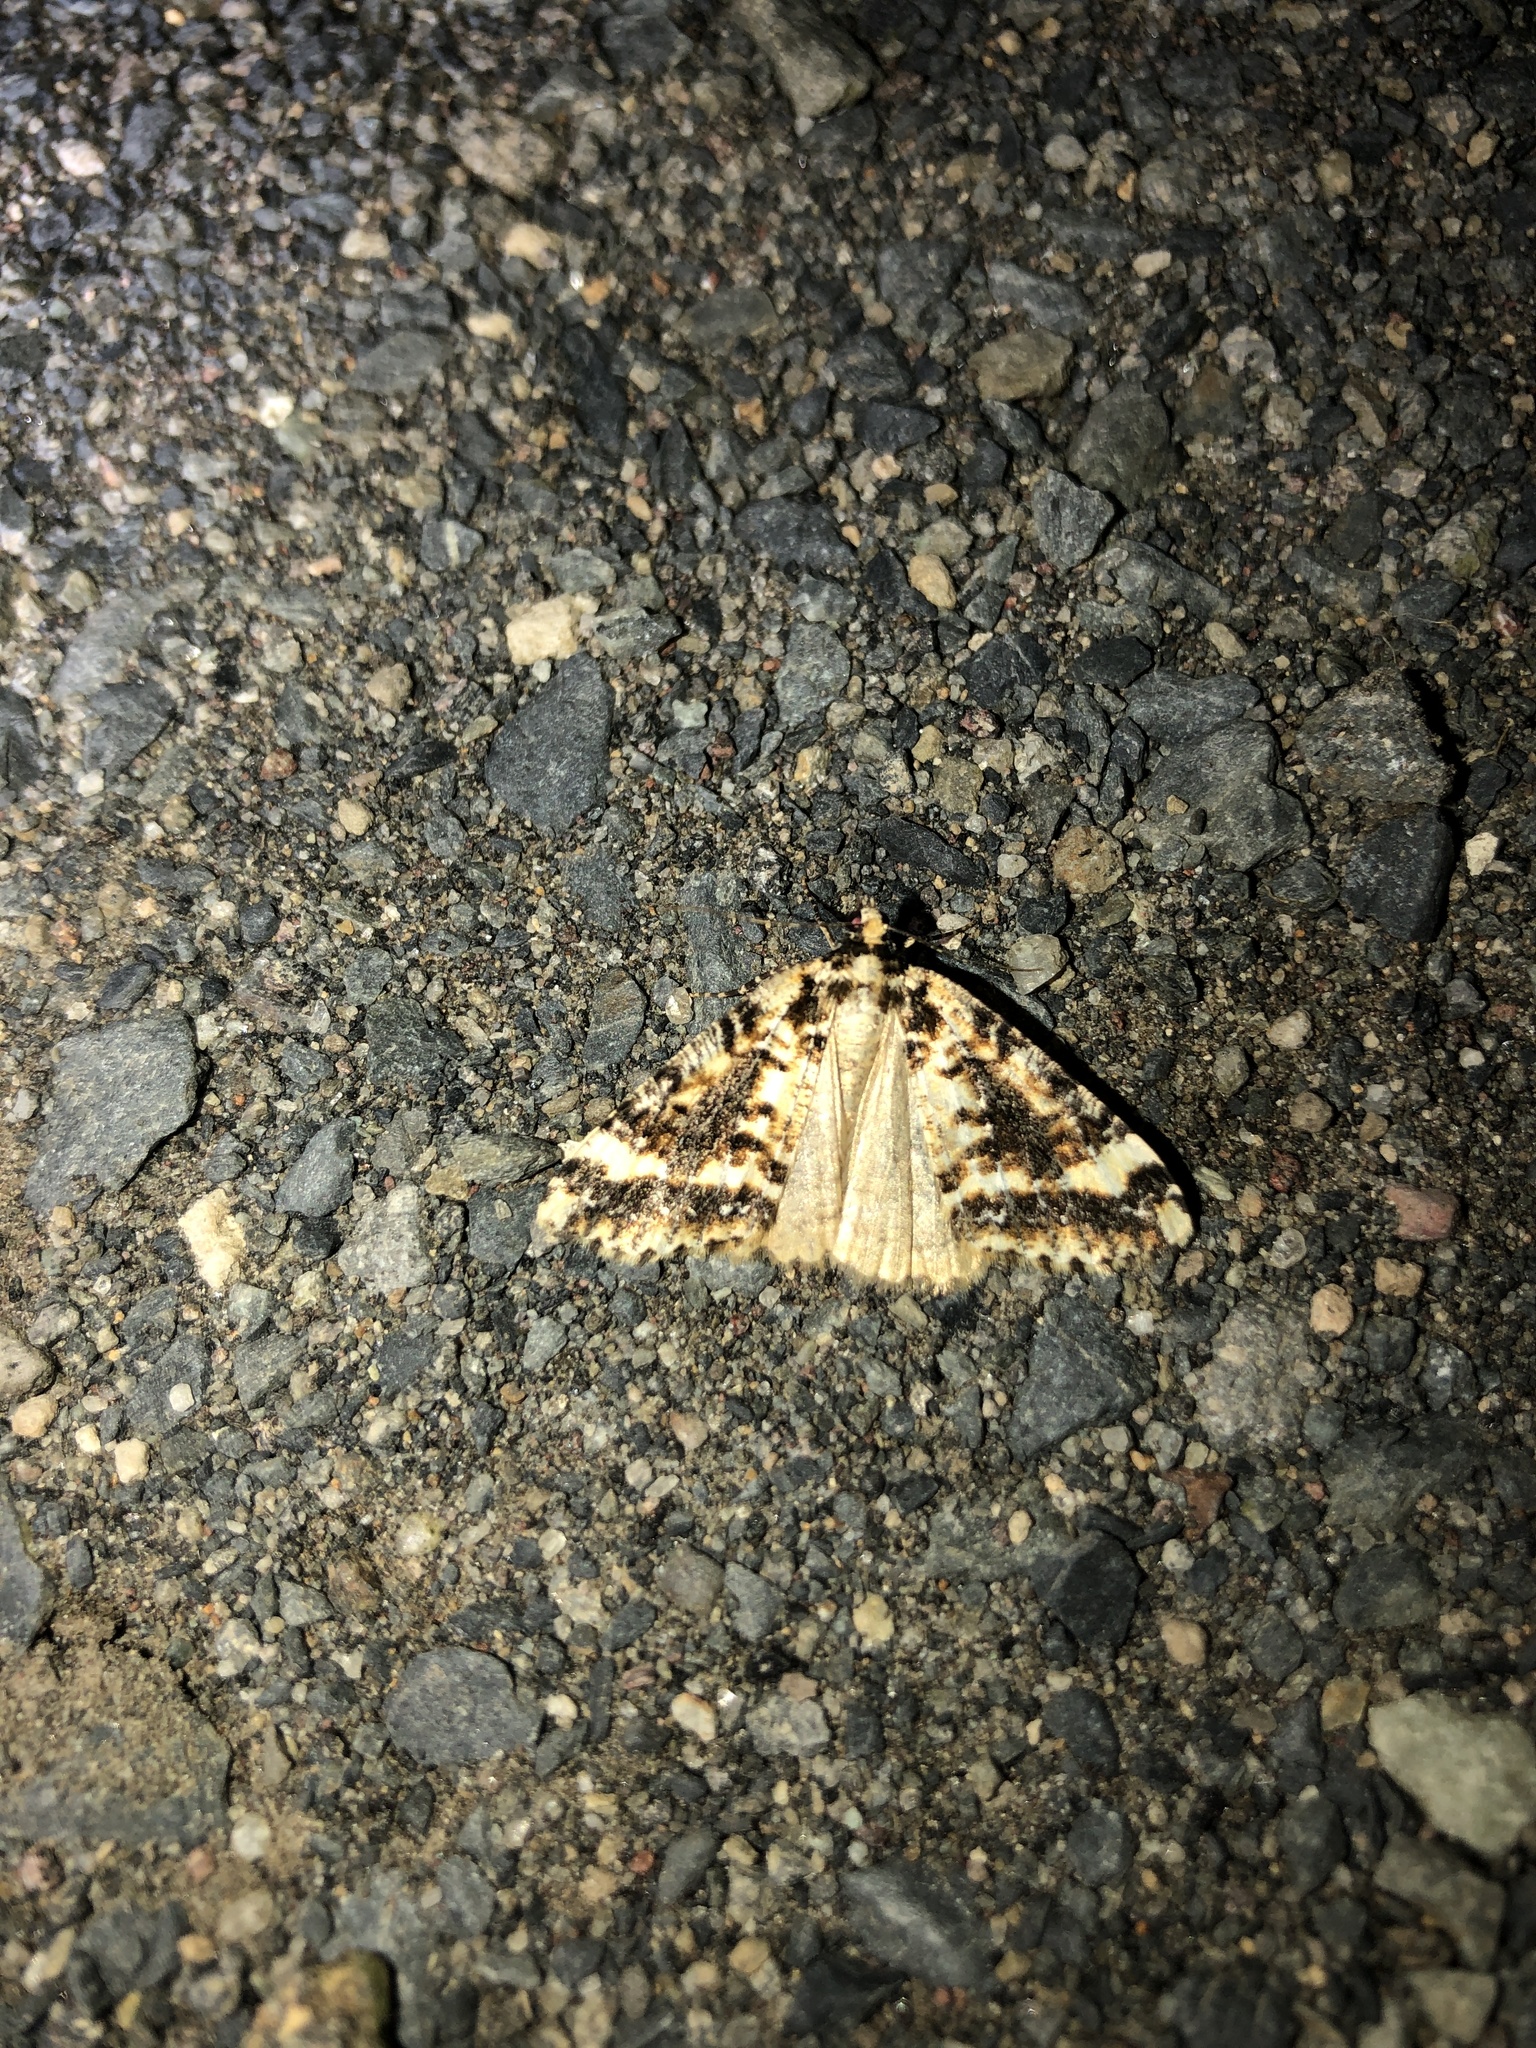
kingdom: Animalia
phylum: Arthropoda
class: Insecta
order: Lepidoptera
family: Geometridae
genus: Pseudocoremia
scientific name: Pseudocoremia leucelaea
